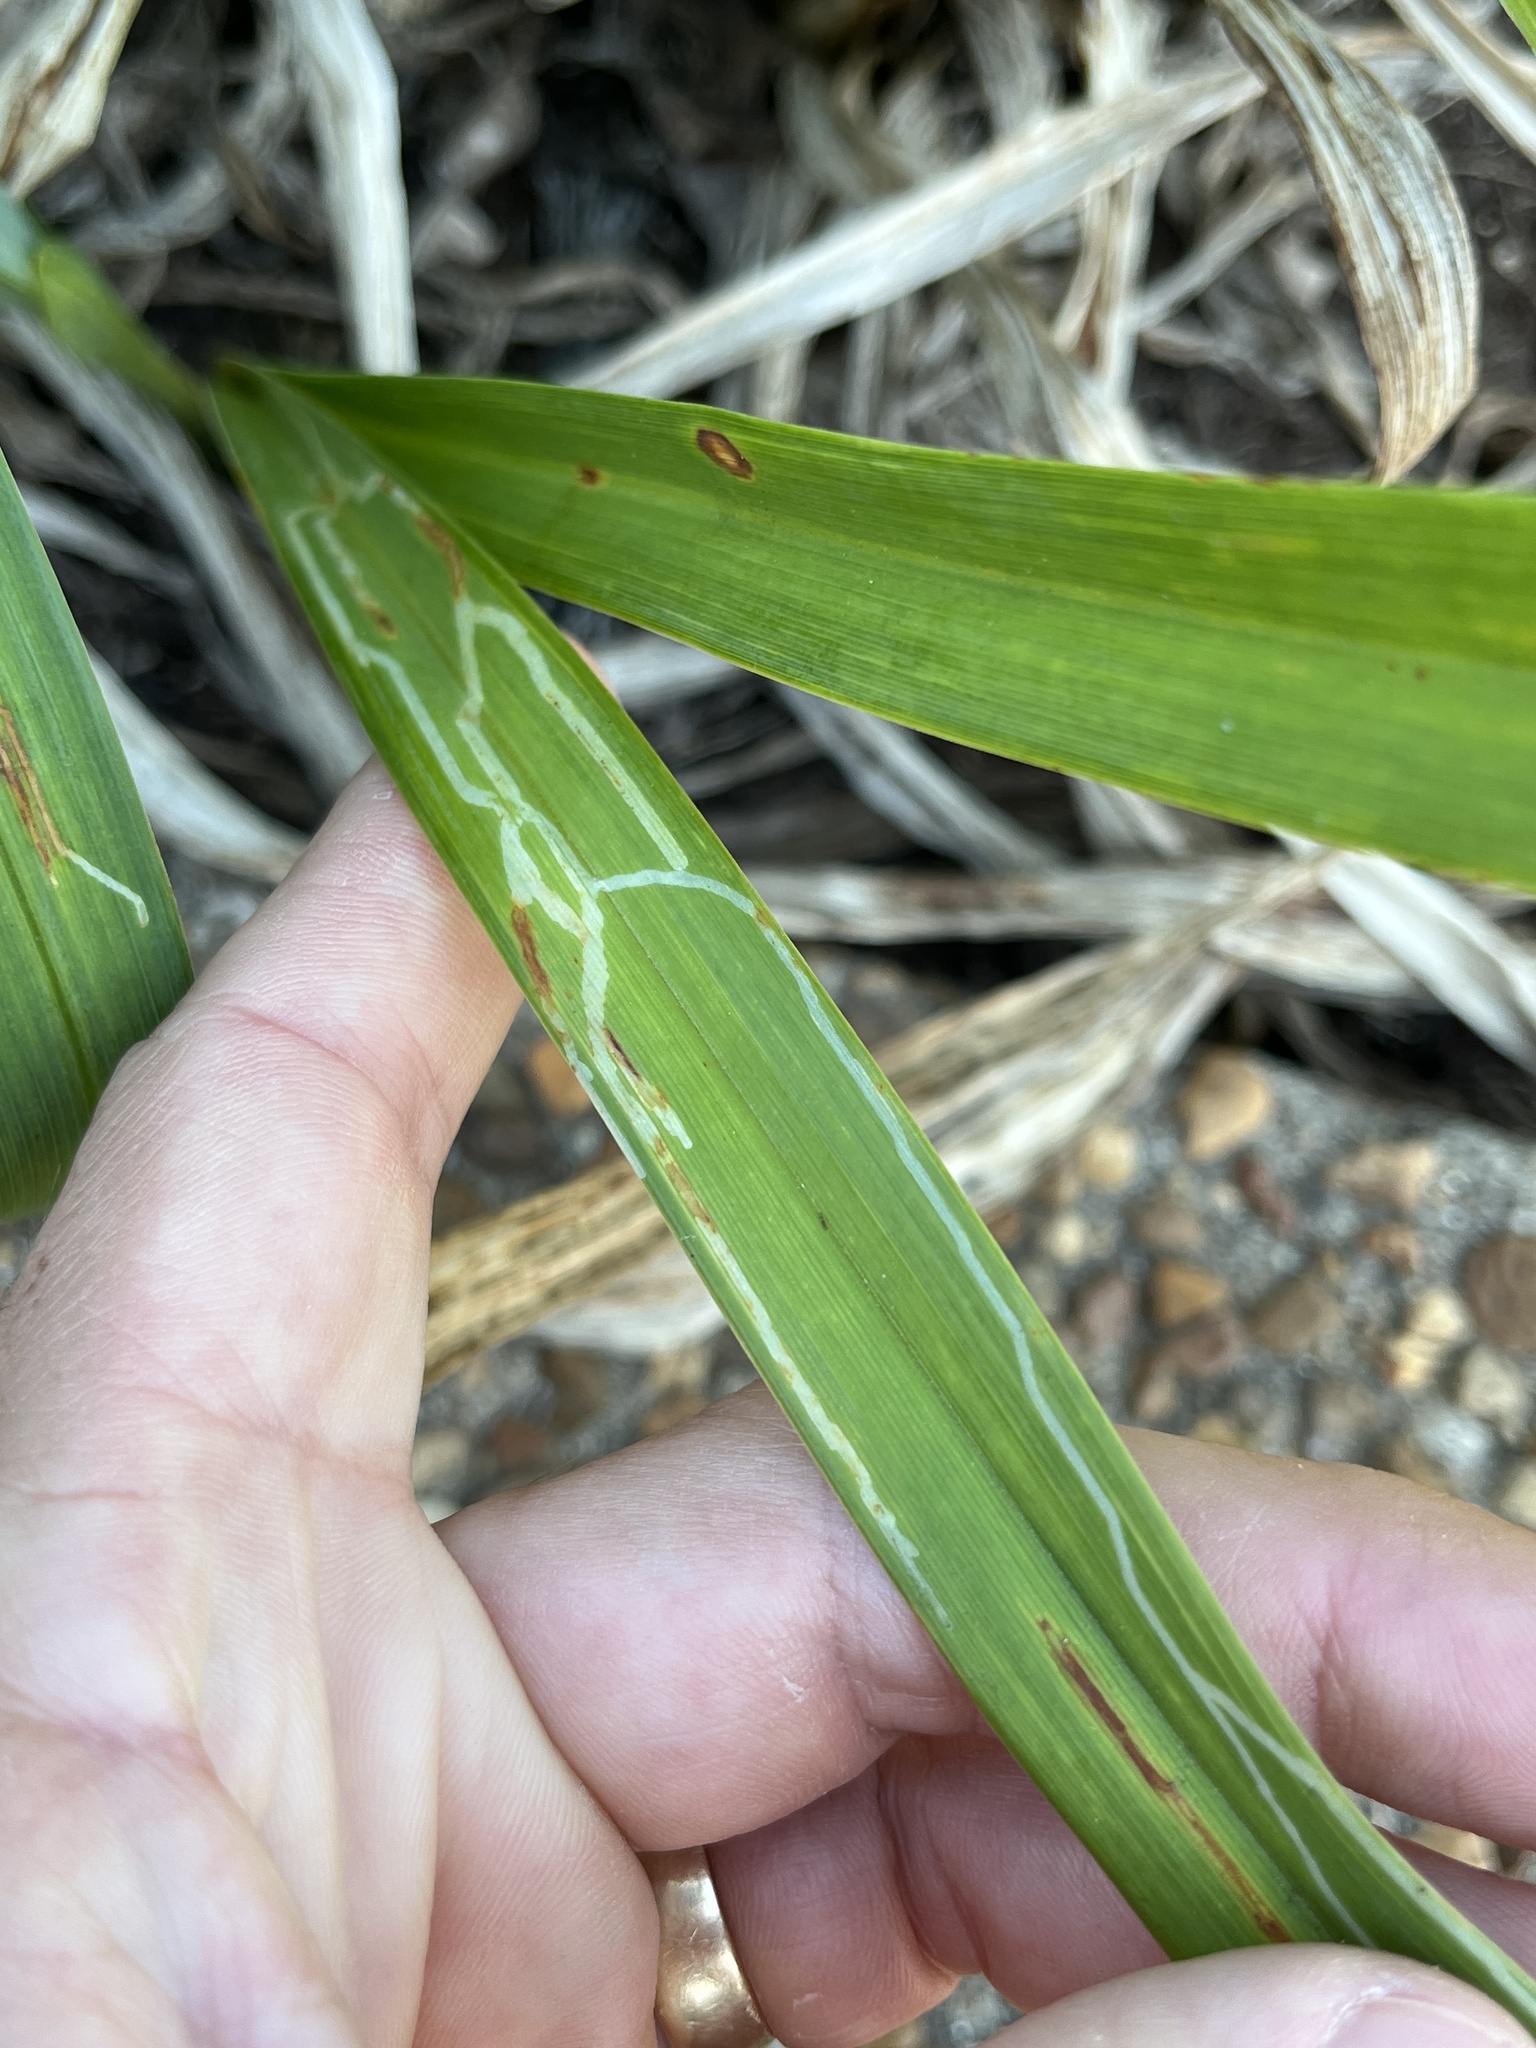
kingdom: Animalia
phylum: Arthropoda
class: Insecta
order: Diptera
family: Agromyzidae
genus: Ophiomyia
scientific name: Ophiomyia kwansonis
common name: Daylily leafminer
